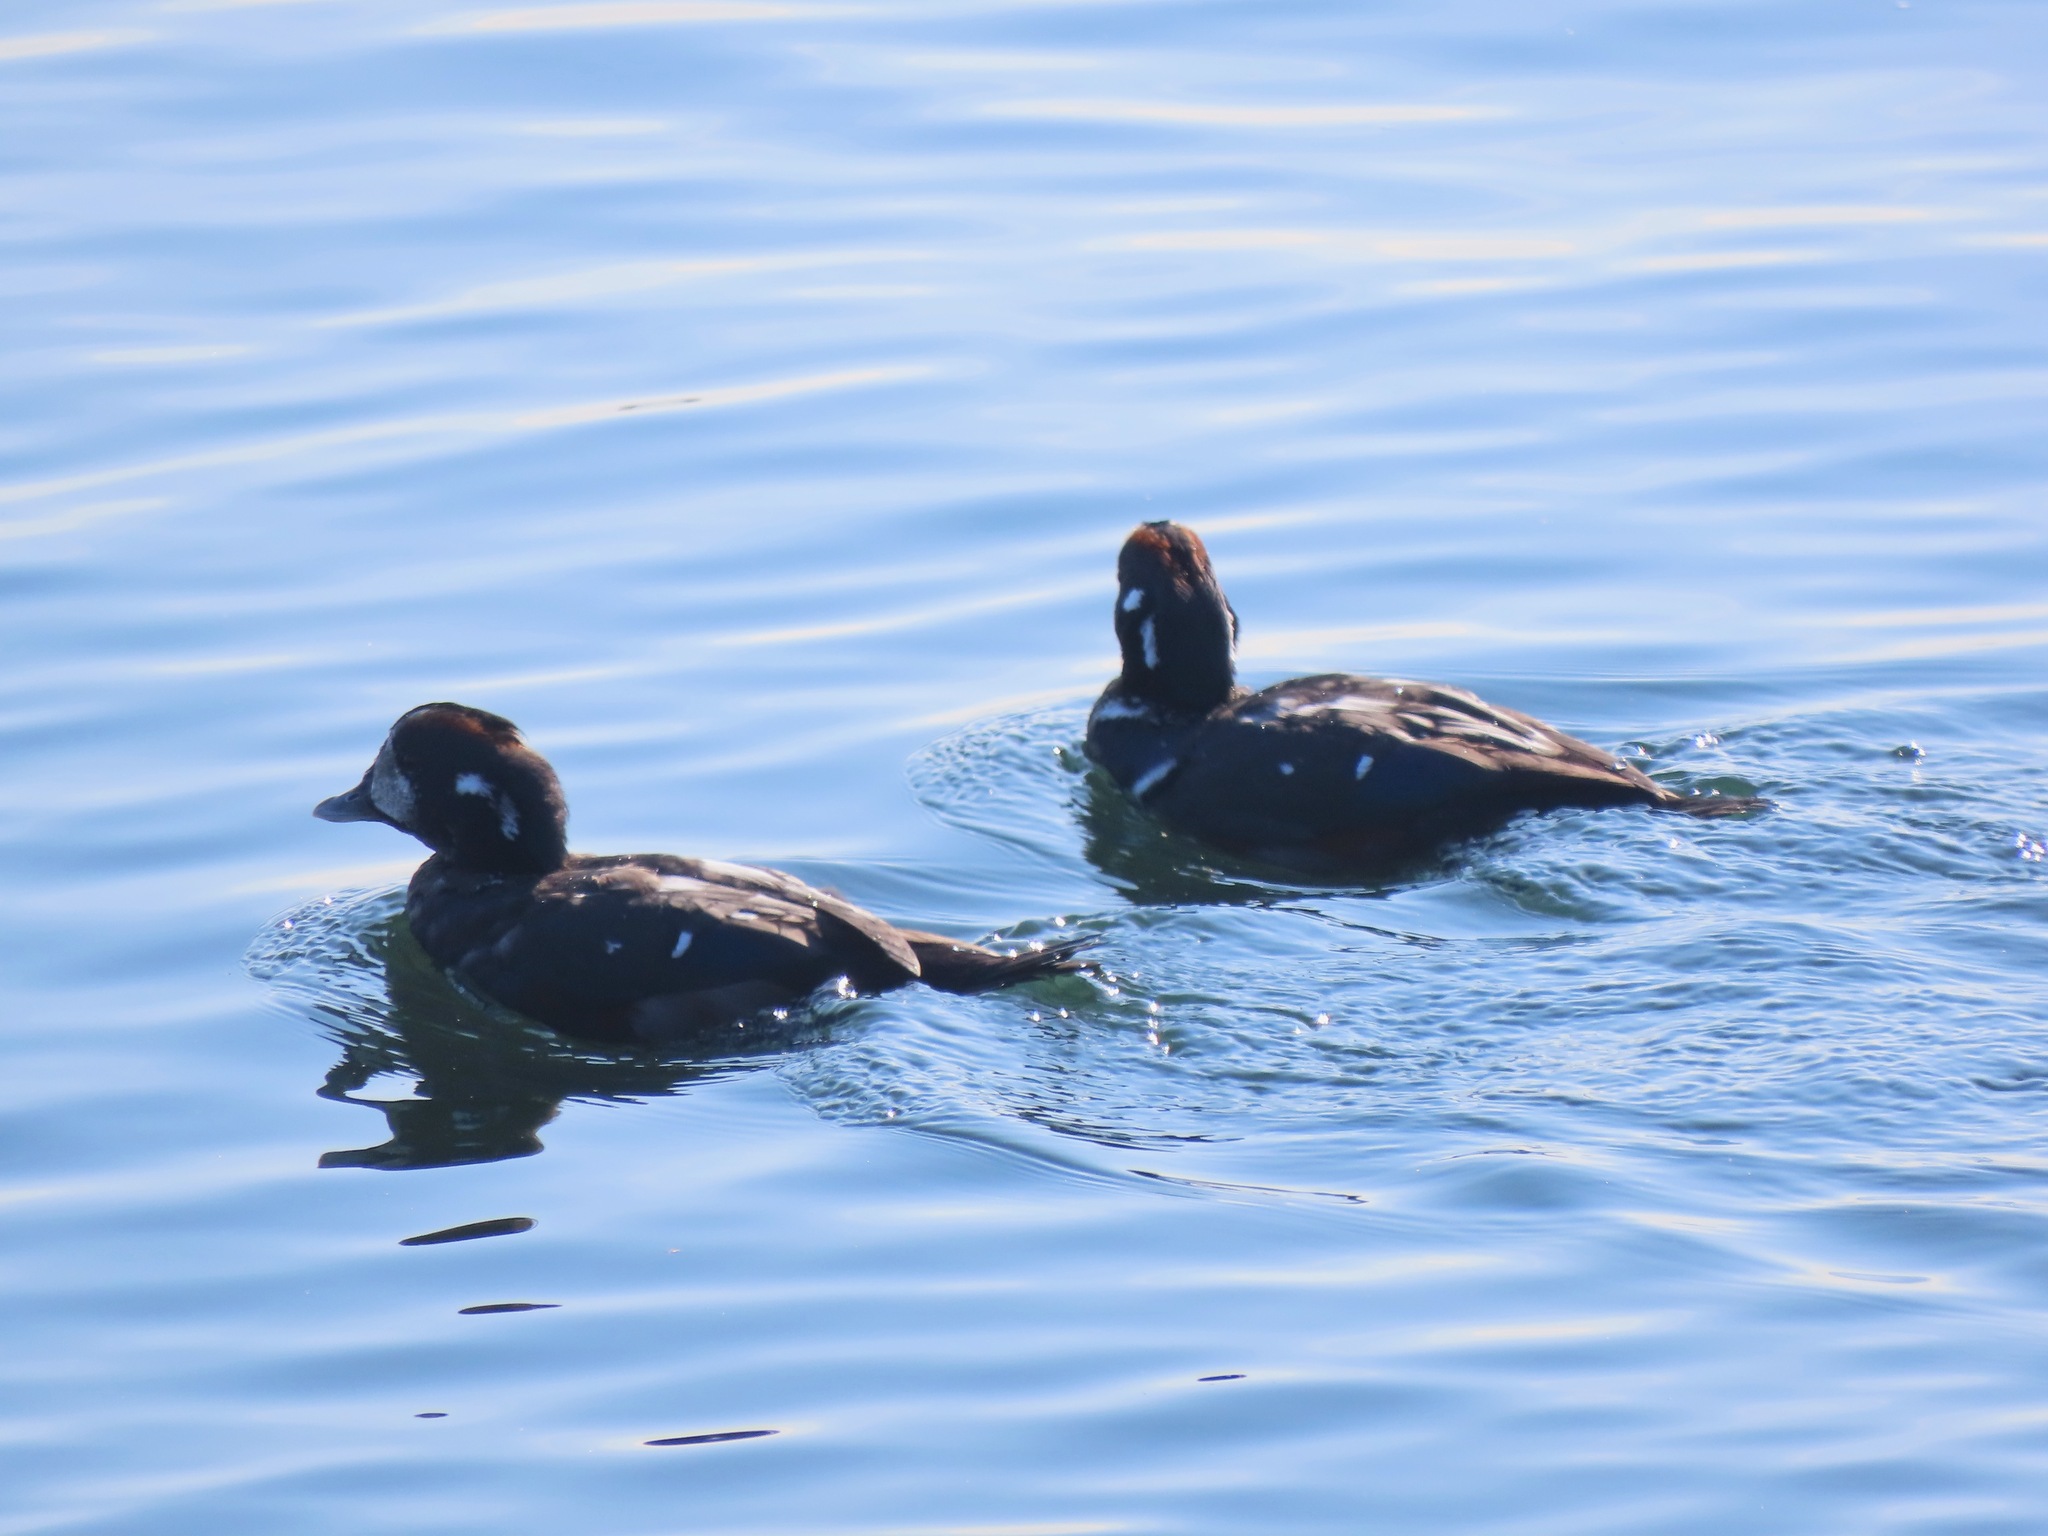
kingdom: Animalia
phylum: Chordata
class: Aves
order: Anseriformes
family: Anatidae
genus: Histrionicus
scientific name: Histrionicus histrionicus
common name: Harlequin duck
